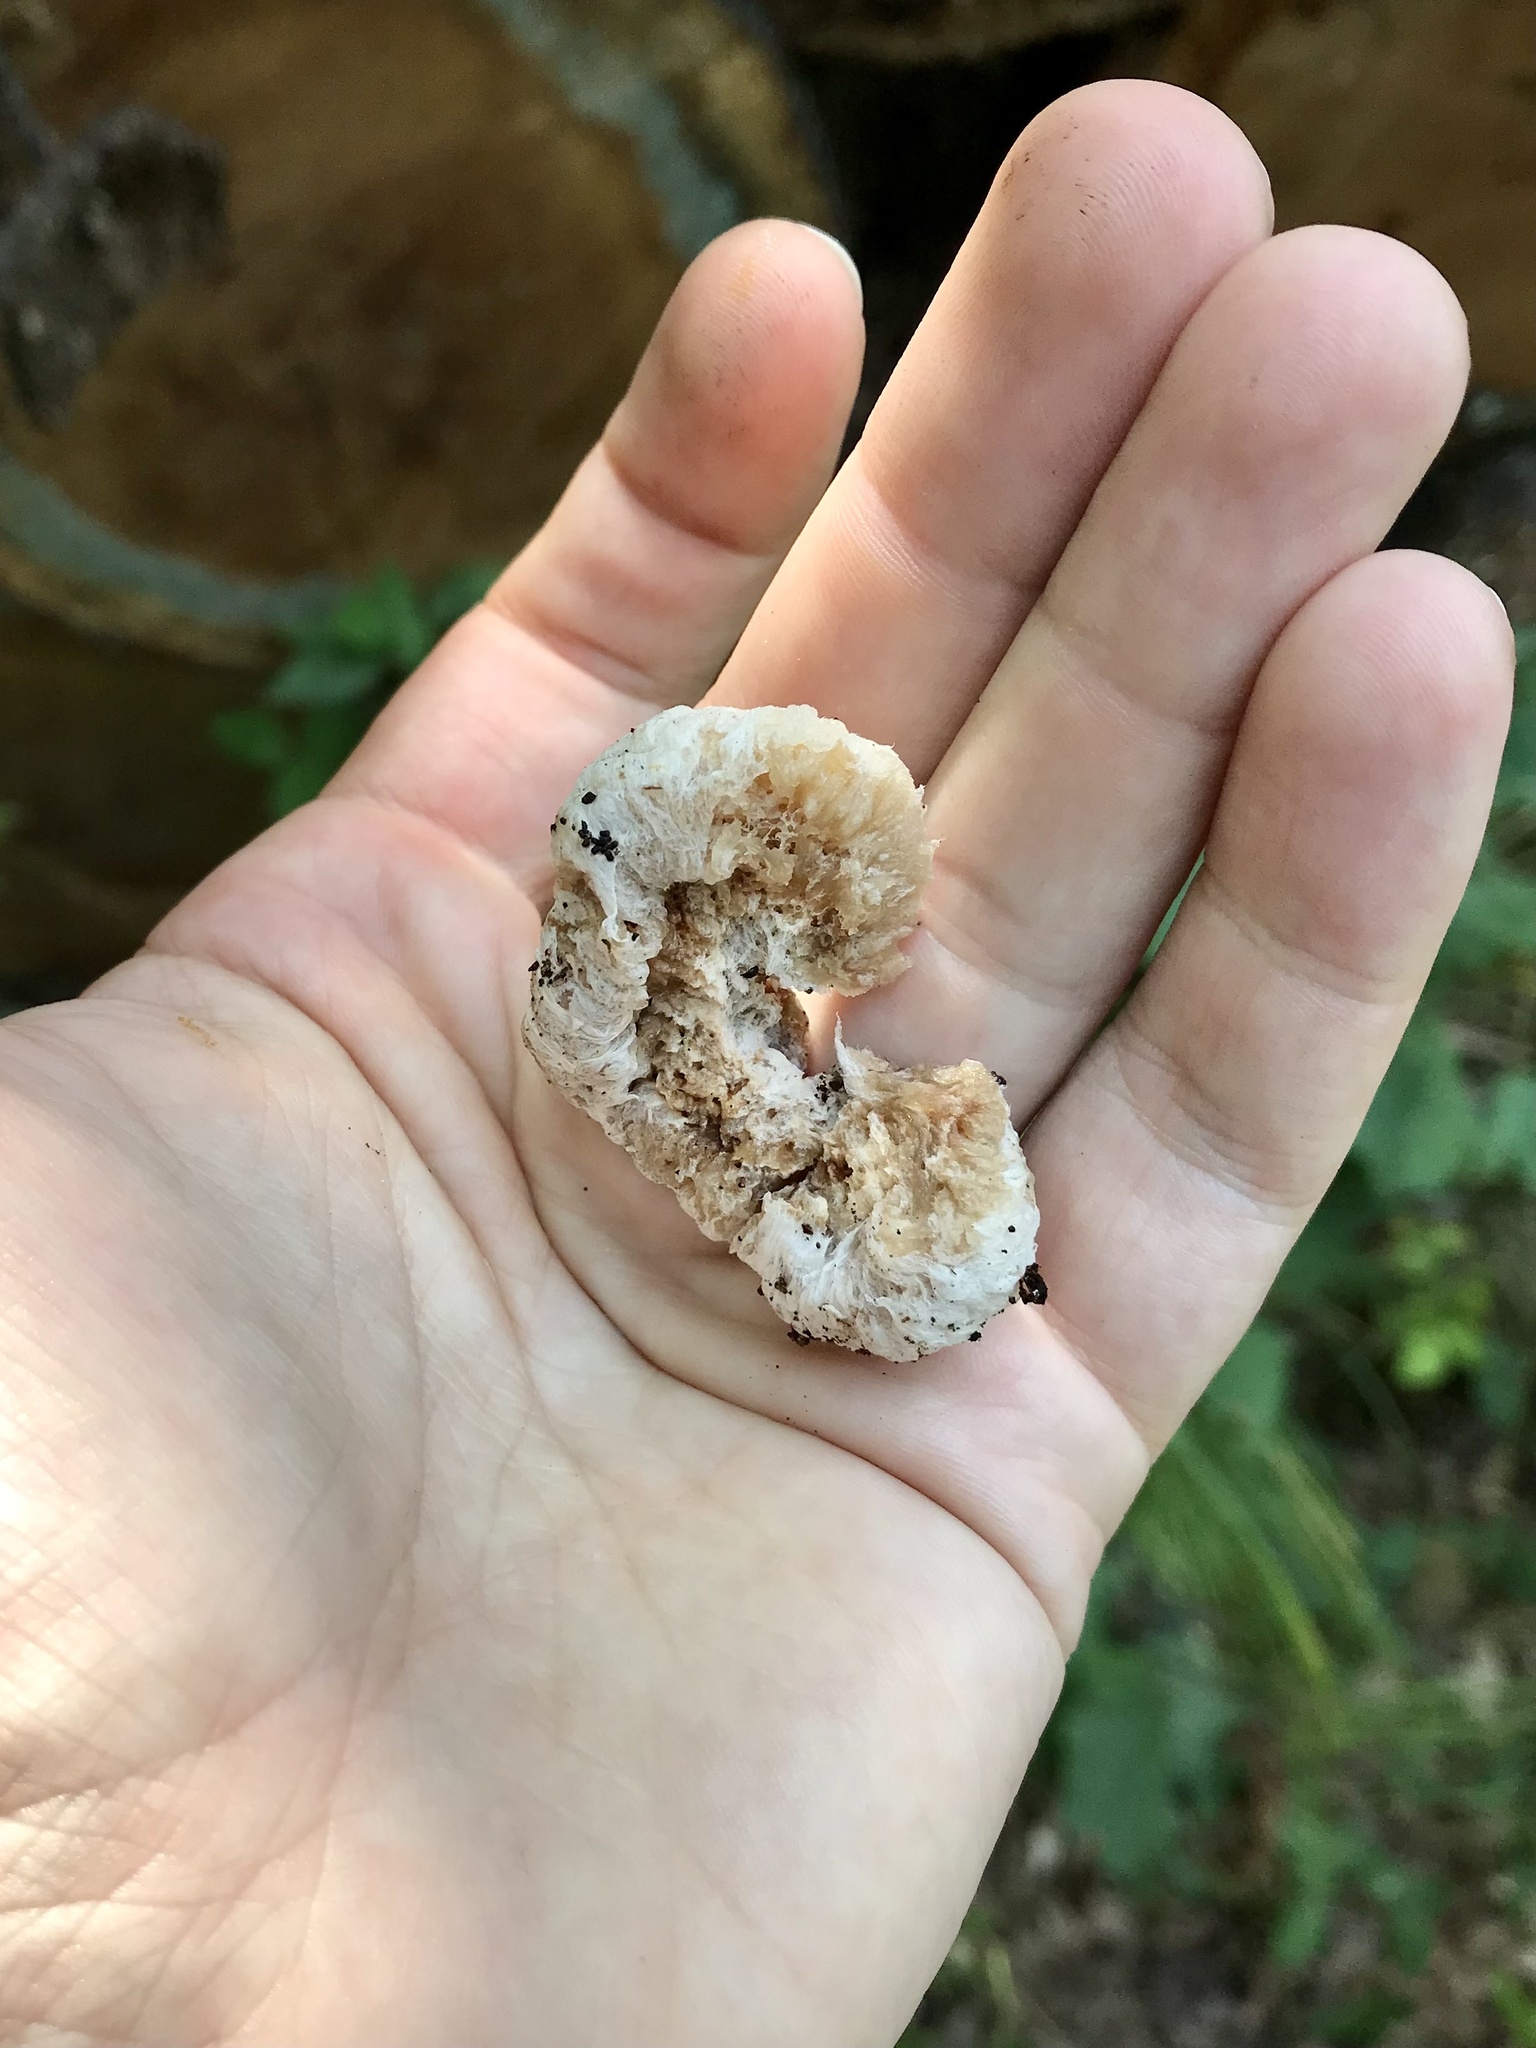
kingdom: Fungi
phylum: Basidiomycota
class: Agaricomycetes
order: Agaricales
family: Entolomataceae
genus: Entoloma
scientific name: Entoloma abortivum
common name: Aborted entoloma
